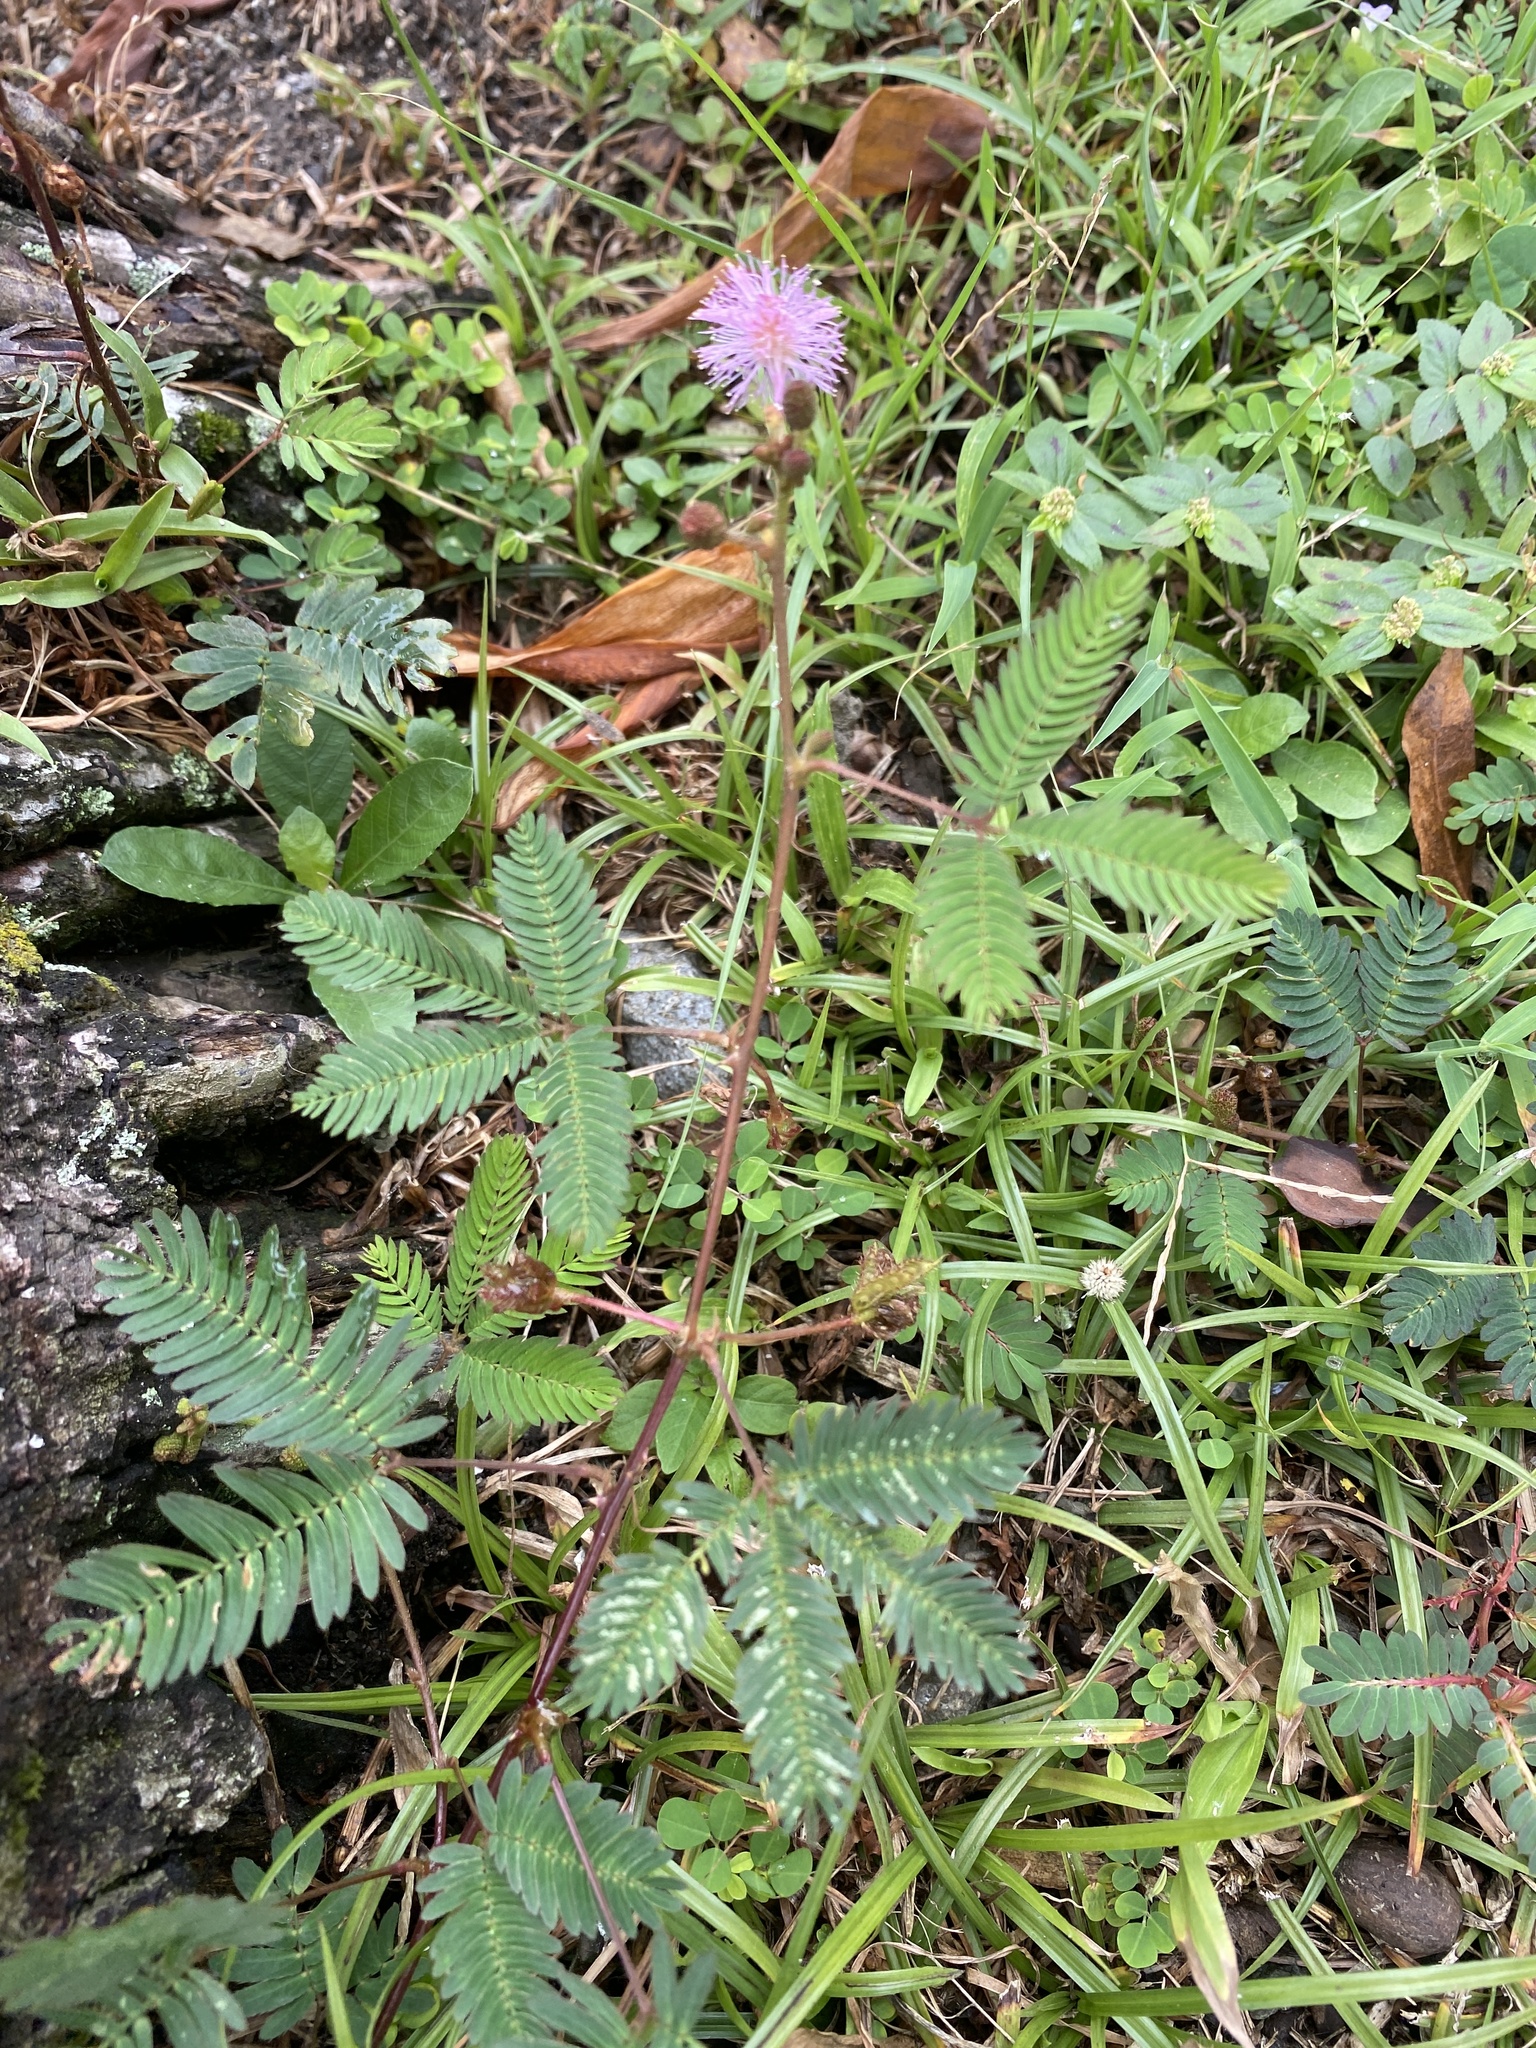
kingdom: Plantae
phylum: Tracheophyta
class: Magnoliopsida
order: Fabales
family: Fabaceae
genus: Mimosa
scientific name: Mimosa pudica
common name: Sensitive plant
